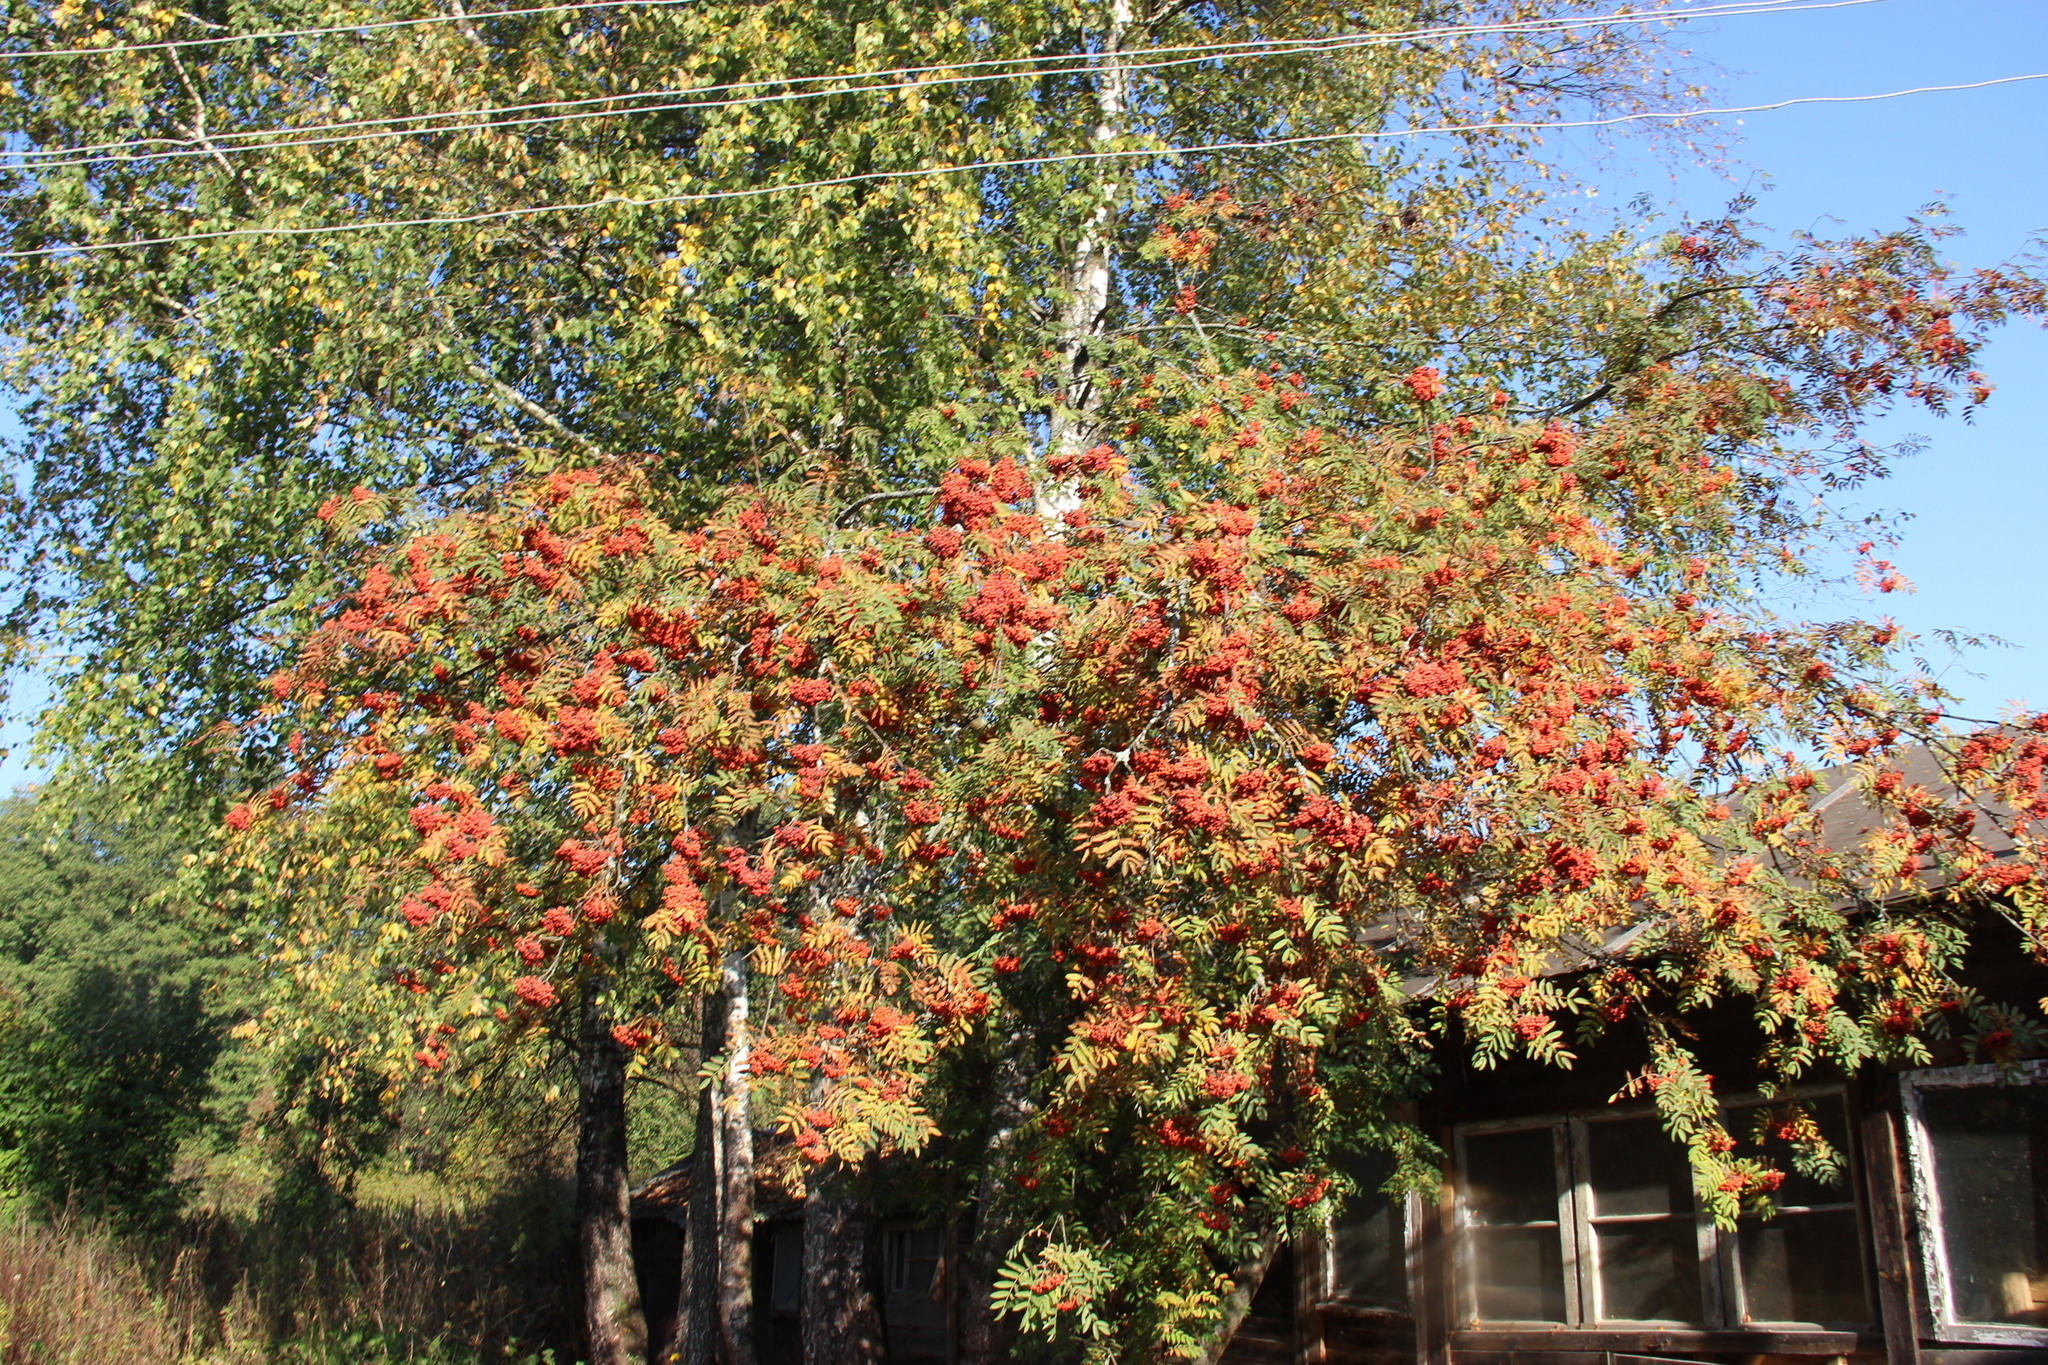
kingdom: Plantae
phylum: Tracheophyta
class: Magnoliopsida
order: Rosales
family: Rosaceae
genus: Sorbus
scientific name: Sorbus aucuparia
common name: Rowan
